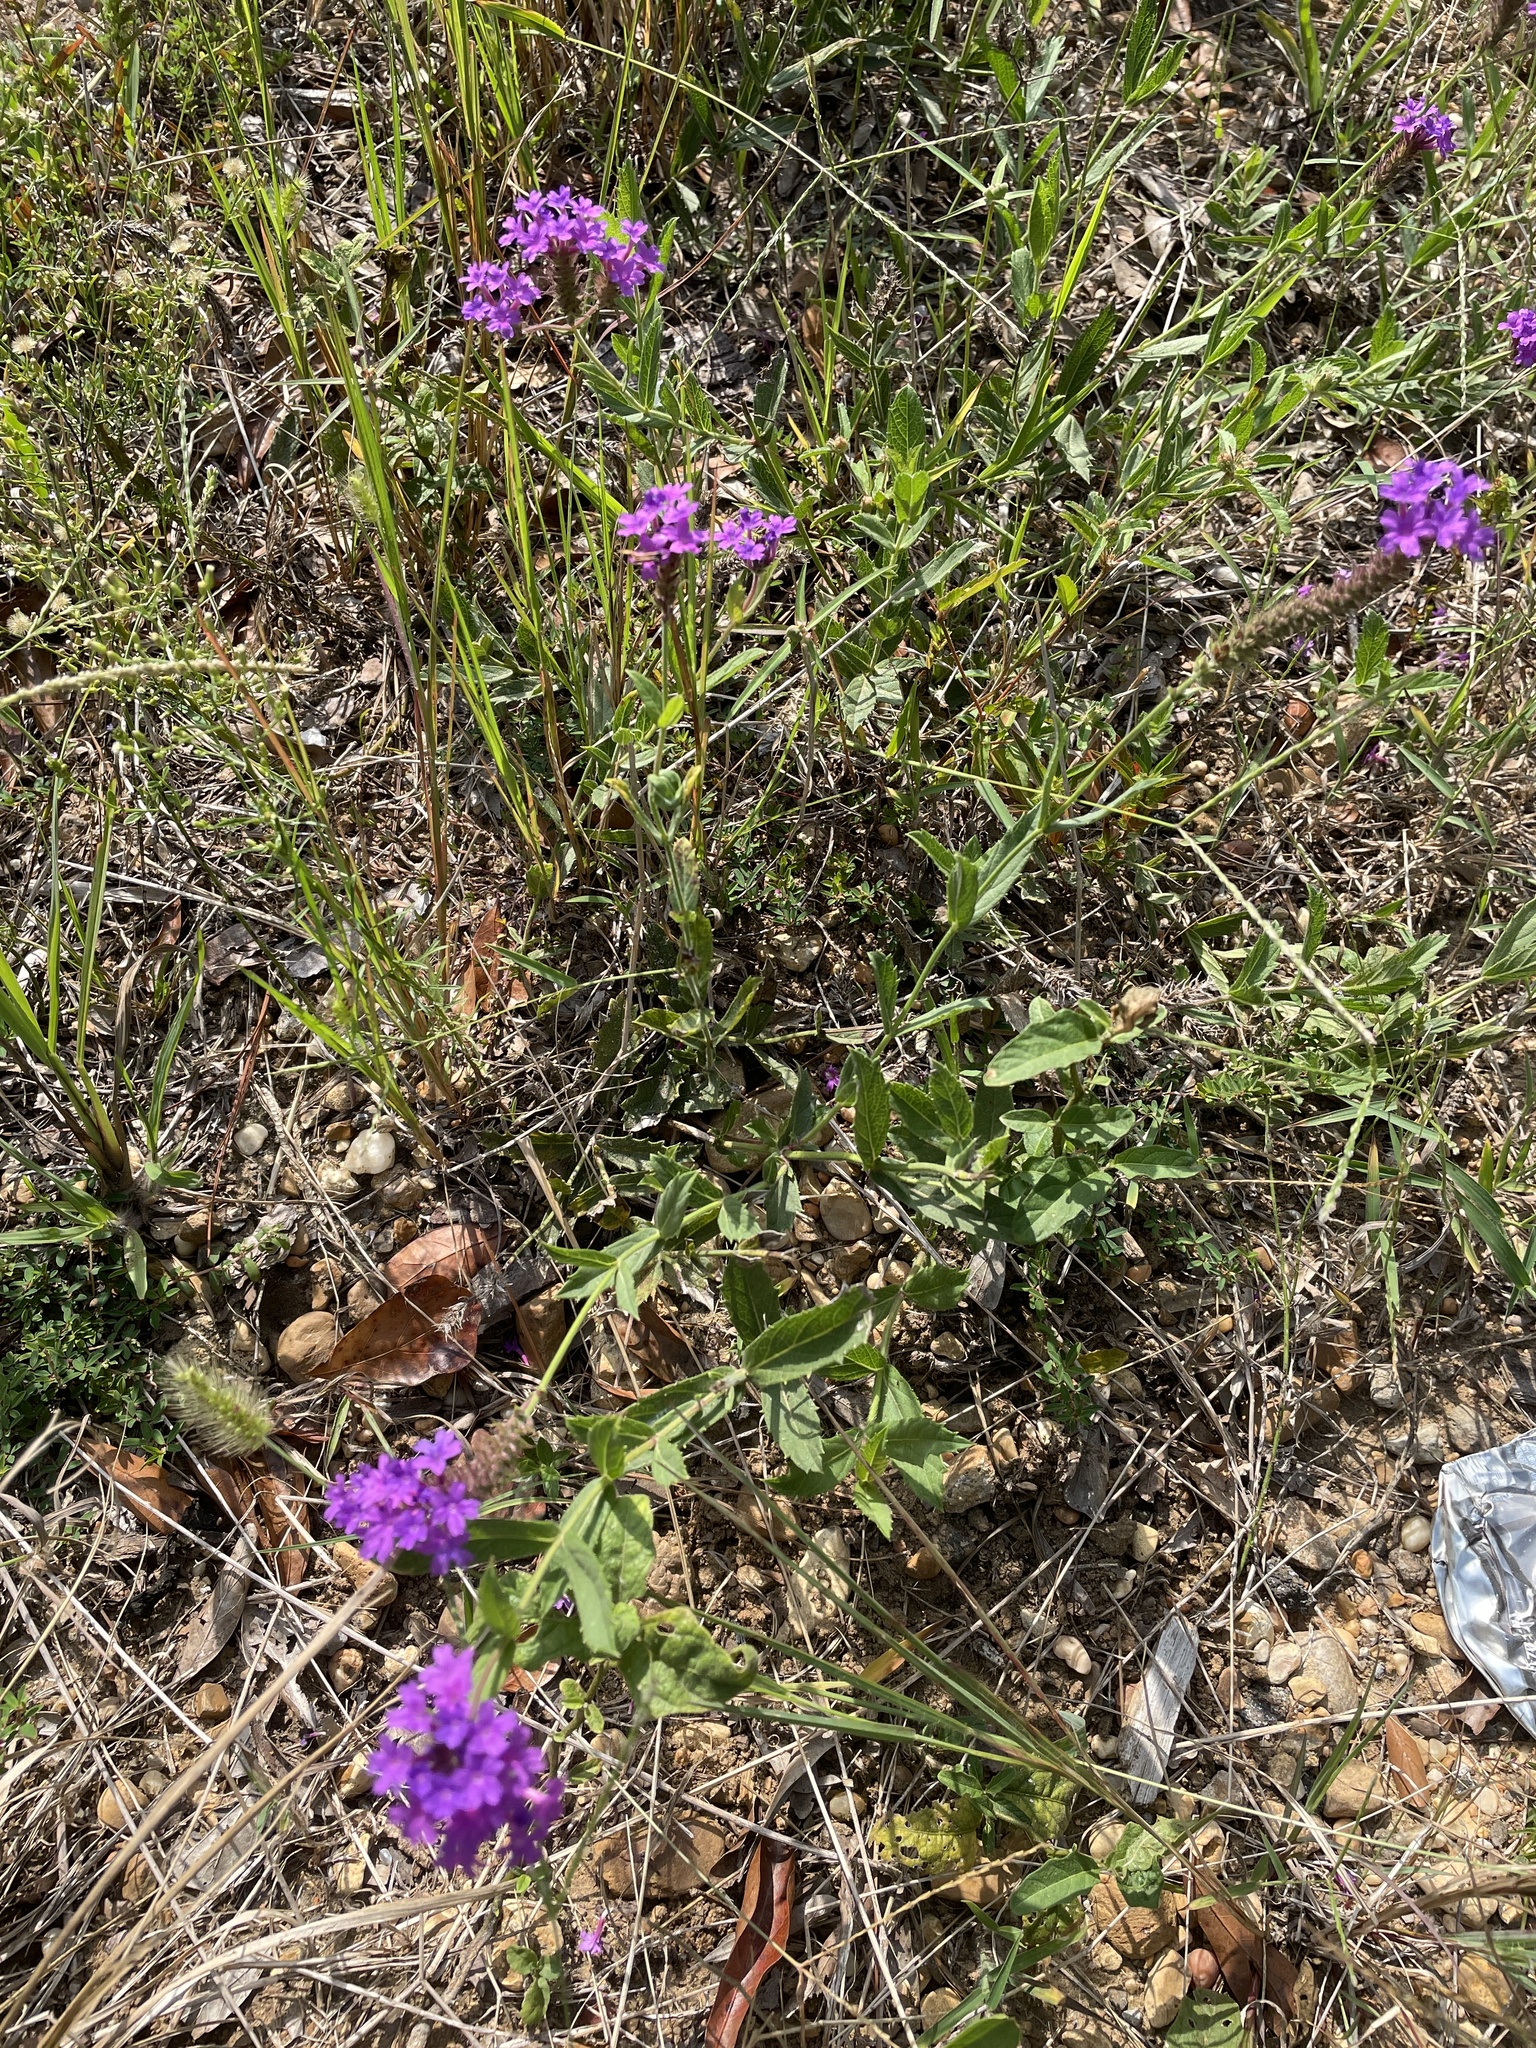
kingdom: Plantae
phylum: Tracheophyta
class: Magnoliopsida
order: Lamiales
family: Verbenaceae
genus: Verbena
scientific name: Verbena rigida
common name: Slender vervain
